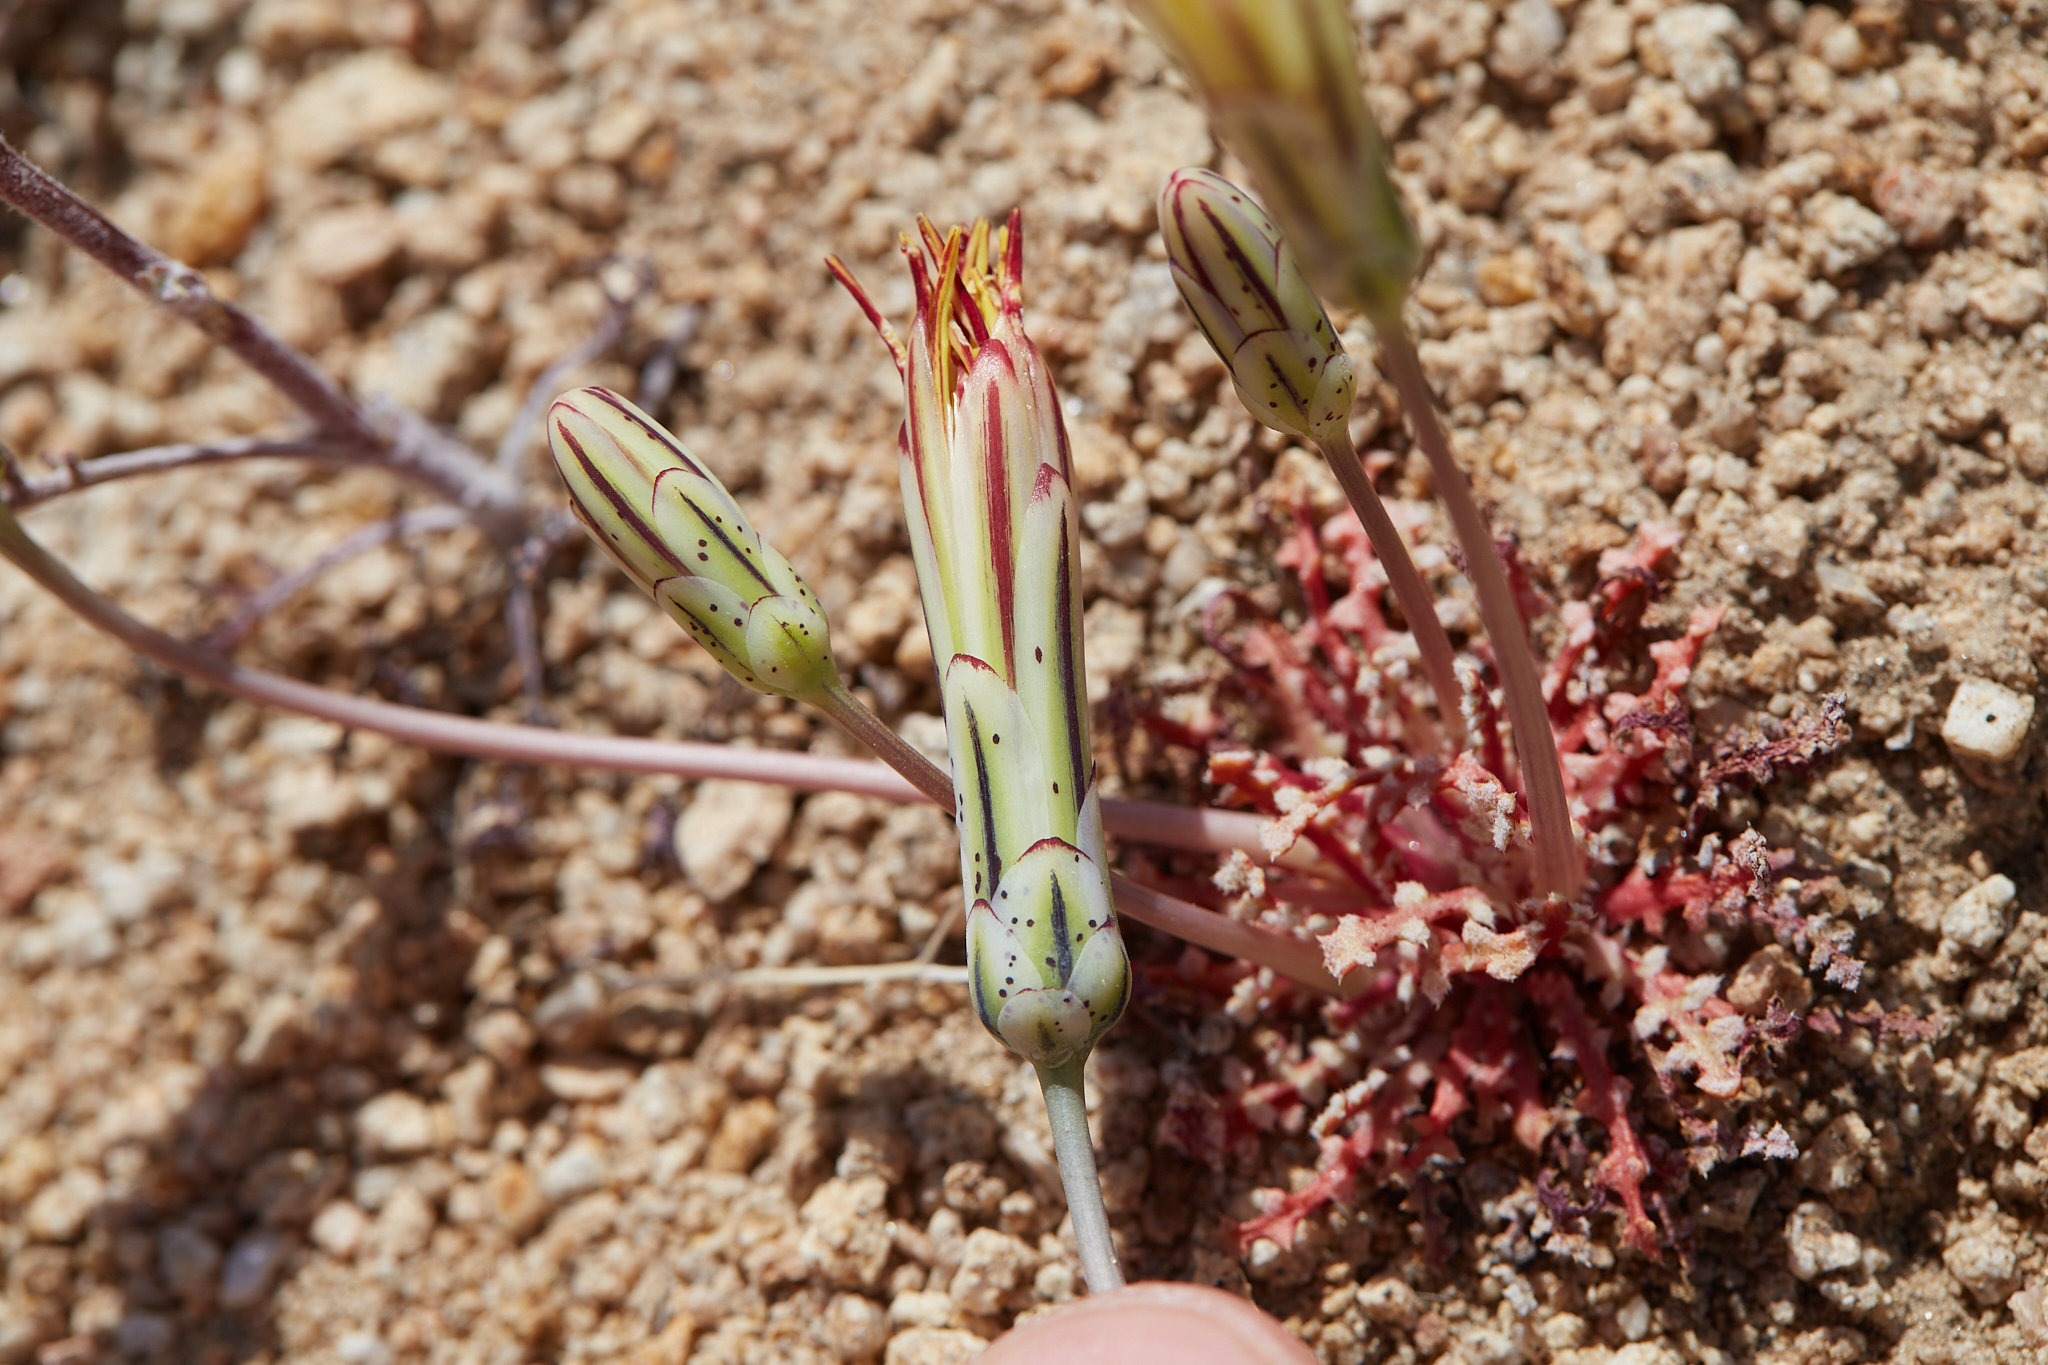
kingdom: Plantae
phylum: Tracheophyta
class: Magnoliopsida
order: Asterales
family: Asteraceae
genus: Anisocoma
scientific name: Anisocoma acaulis
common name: Scalebud
